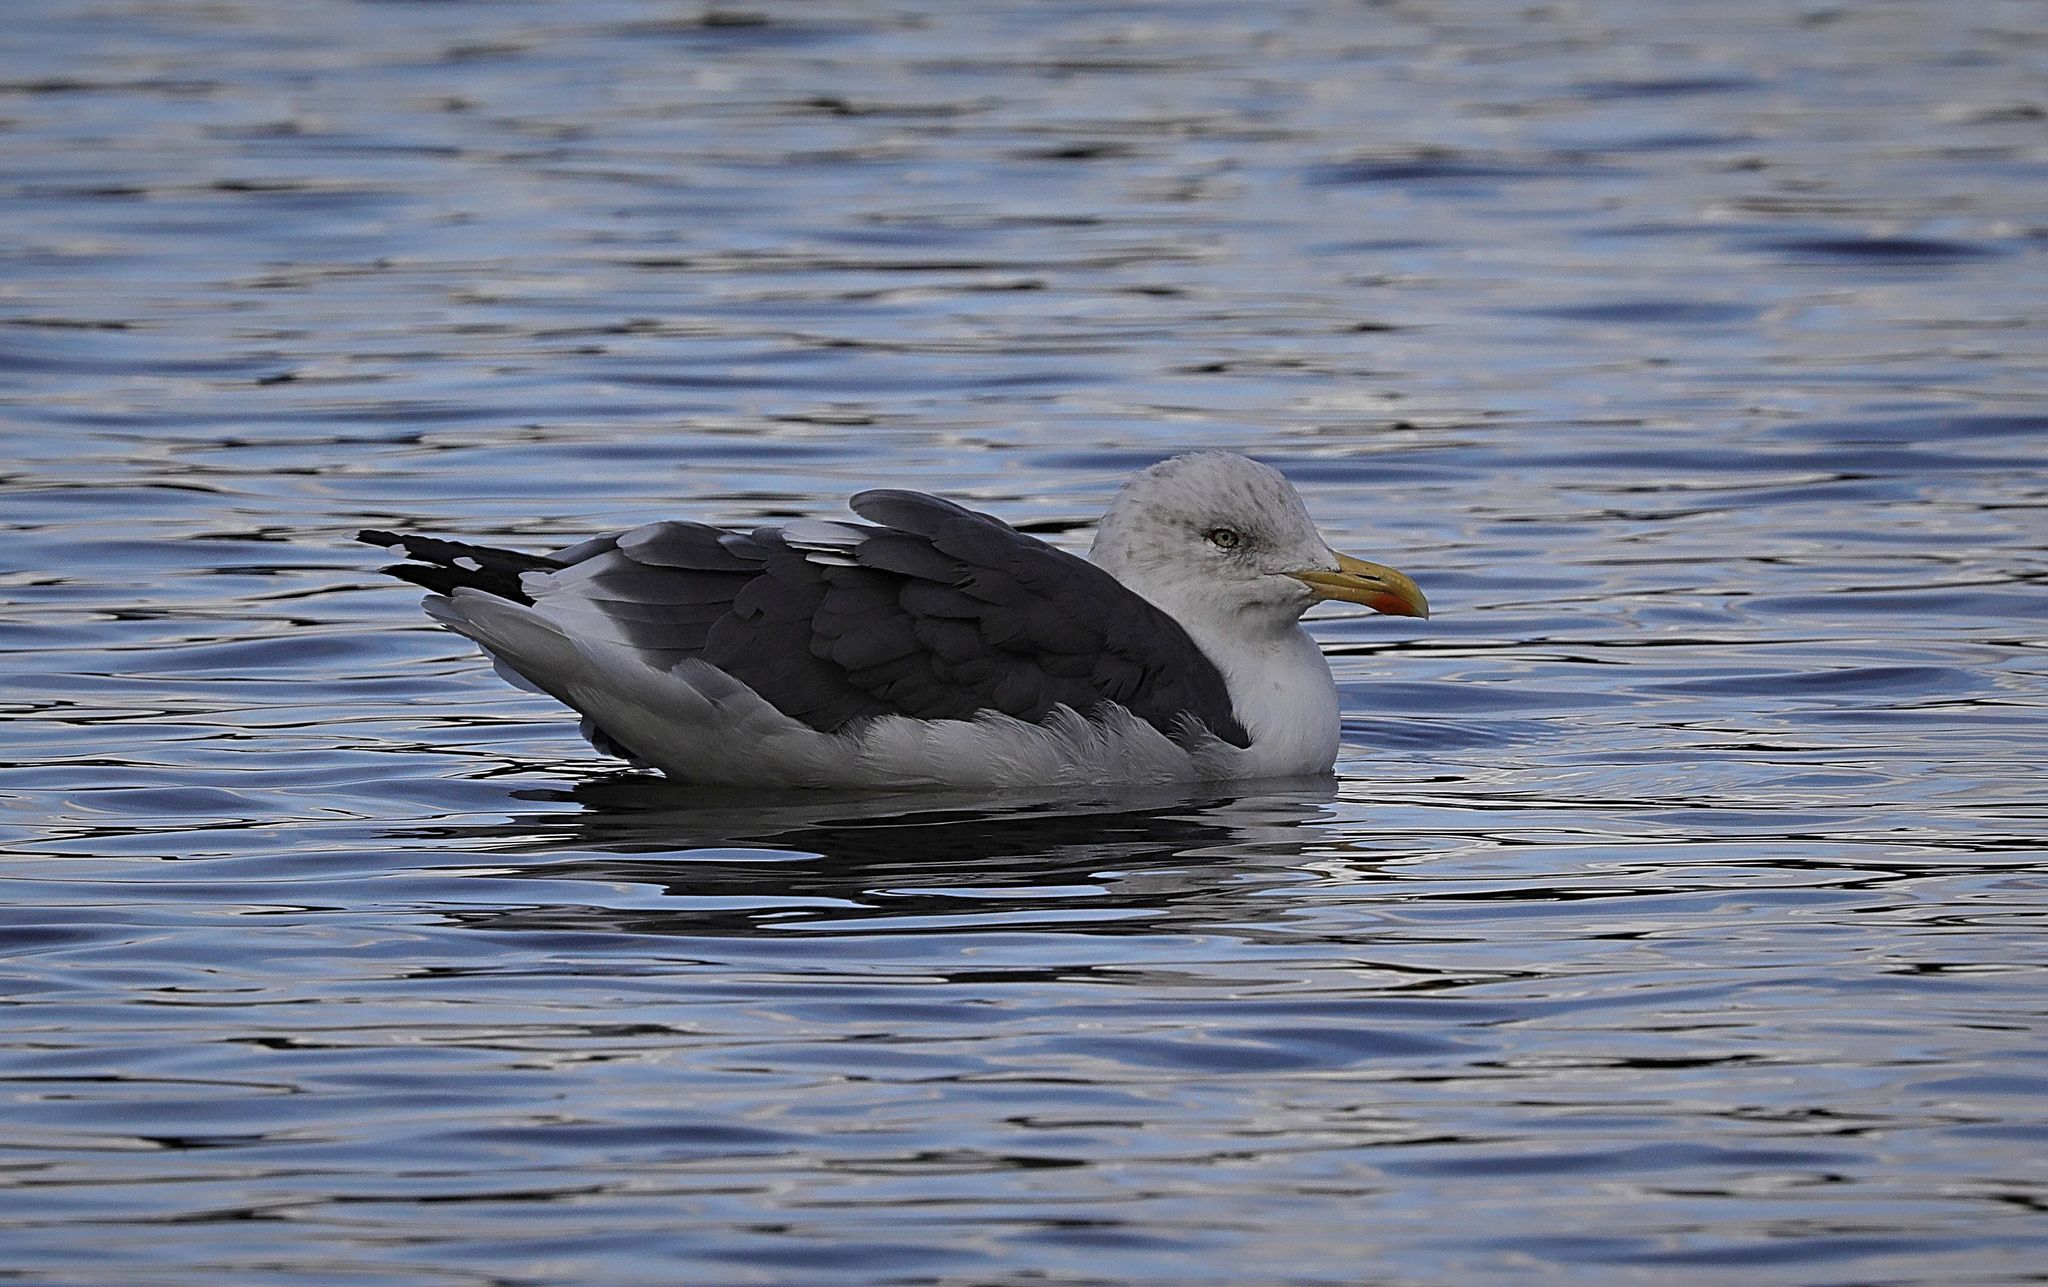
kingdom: Animalia
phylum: Chordata
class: Aves
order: Charadriiformes
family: Laridae
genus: Larus
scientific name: Larus fuscus
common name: Lesser black-backed gull
